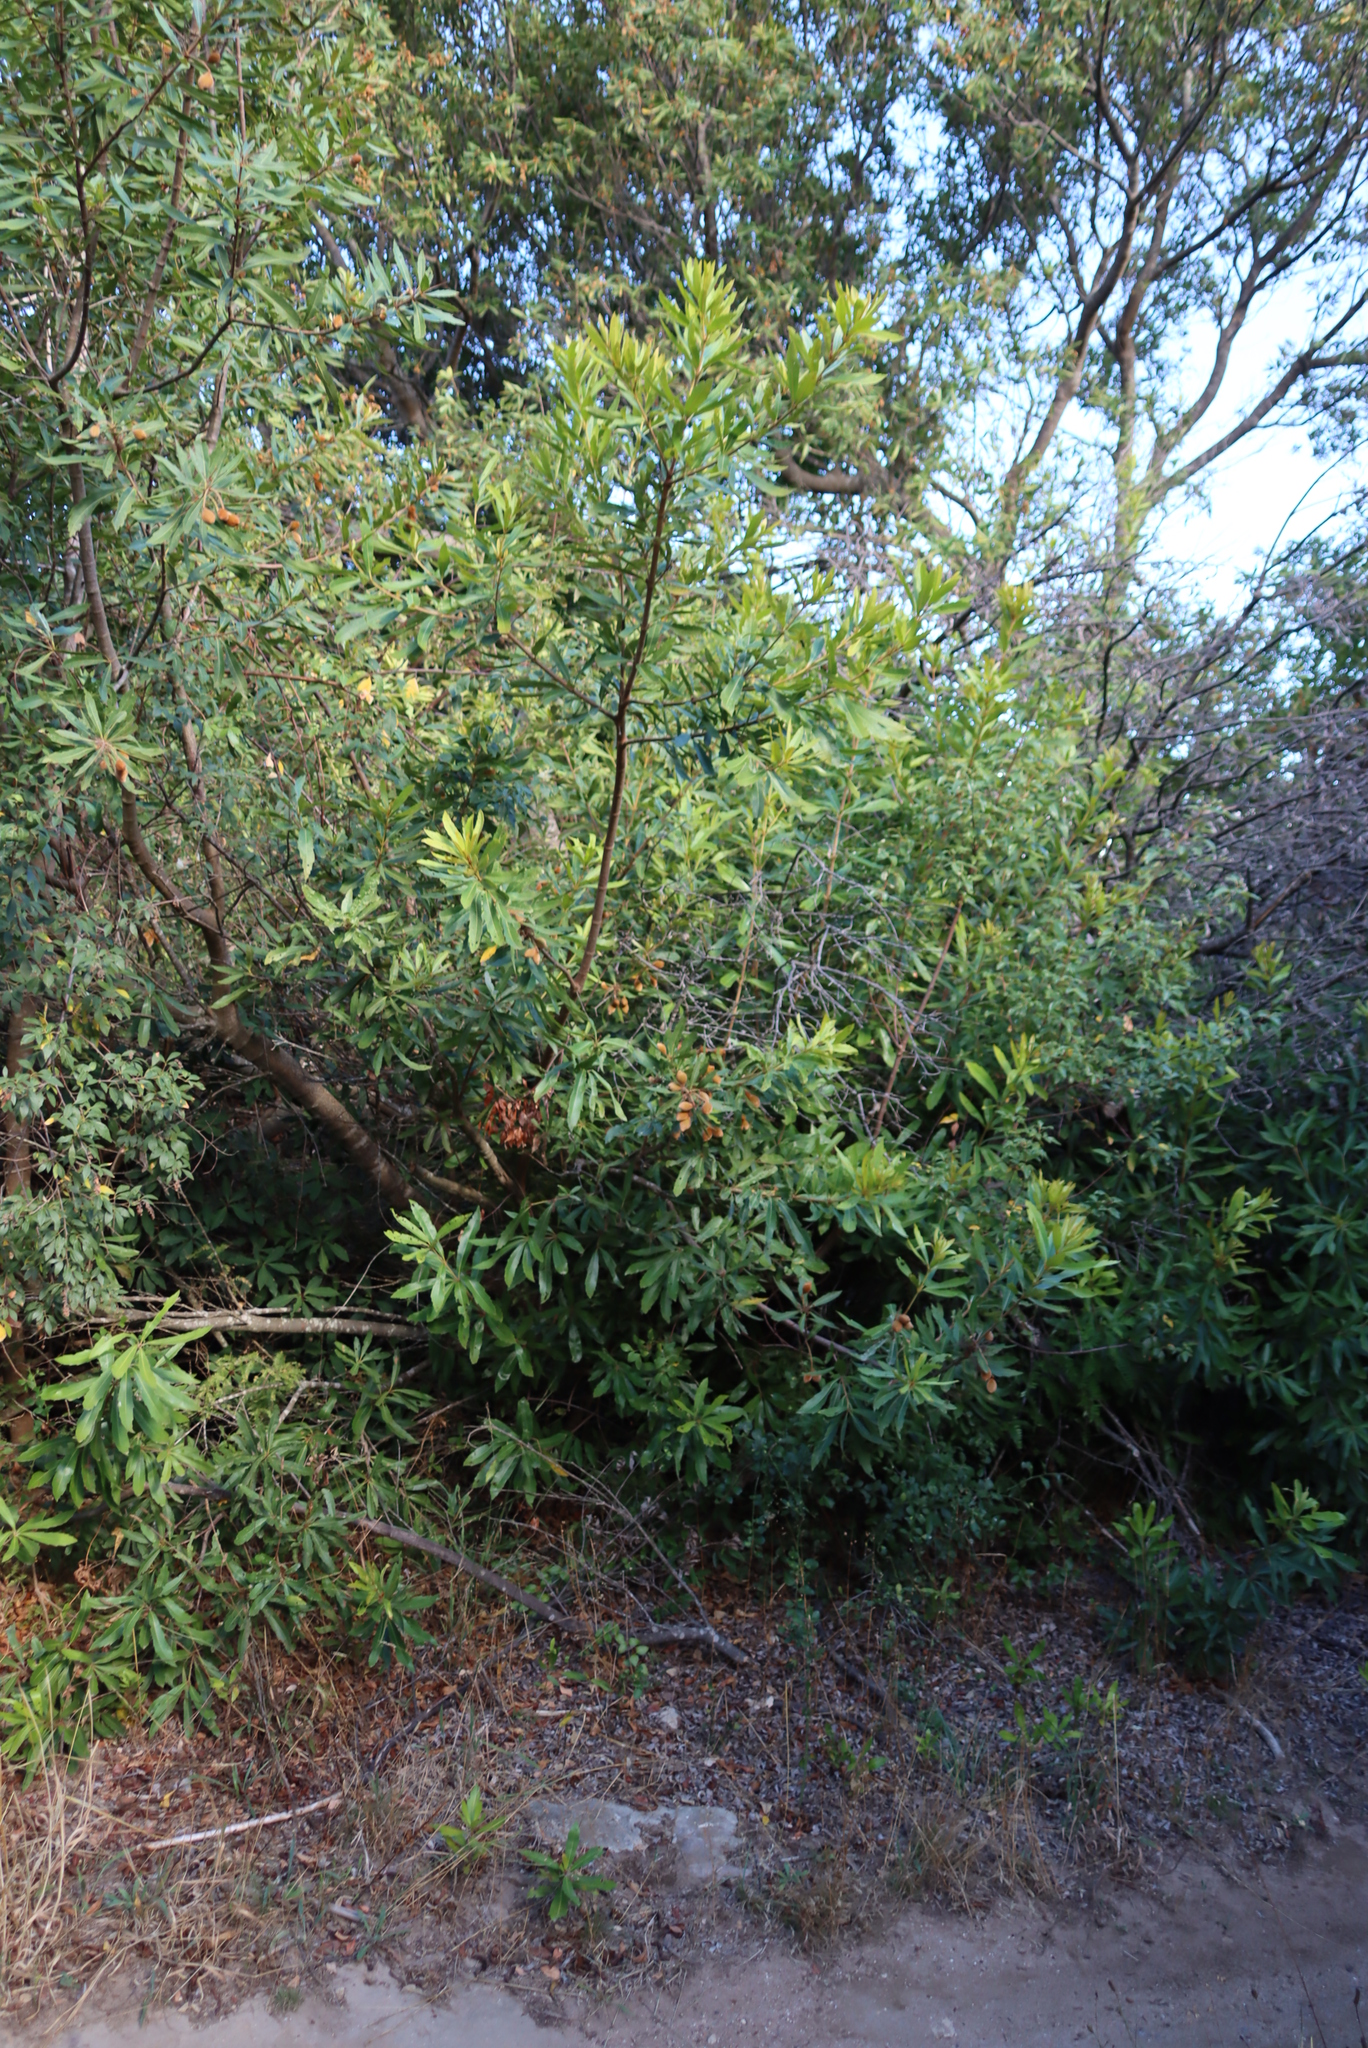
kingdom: Plantae
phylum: Tracheophyta
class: Magnoliopsida
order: Proteales
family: Proteaceae
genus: Brabejum
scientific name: Brabejum stellatifolium
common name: Wild almond
